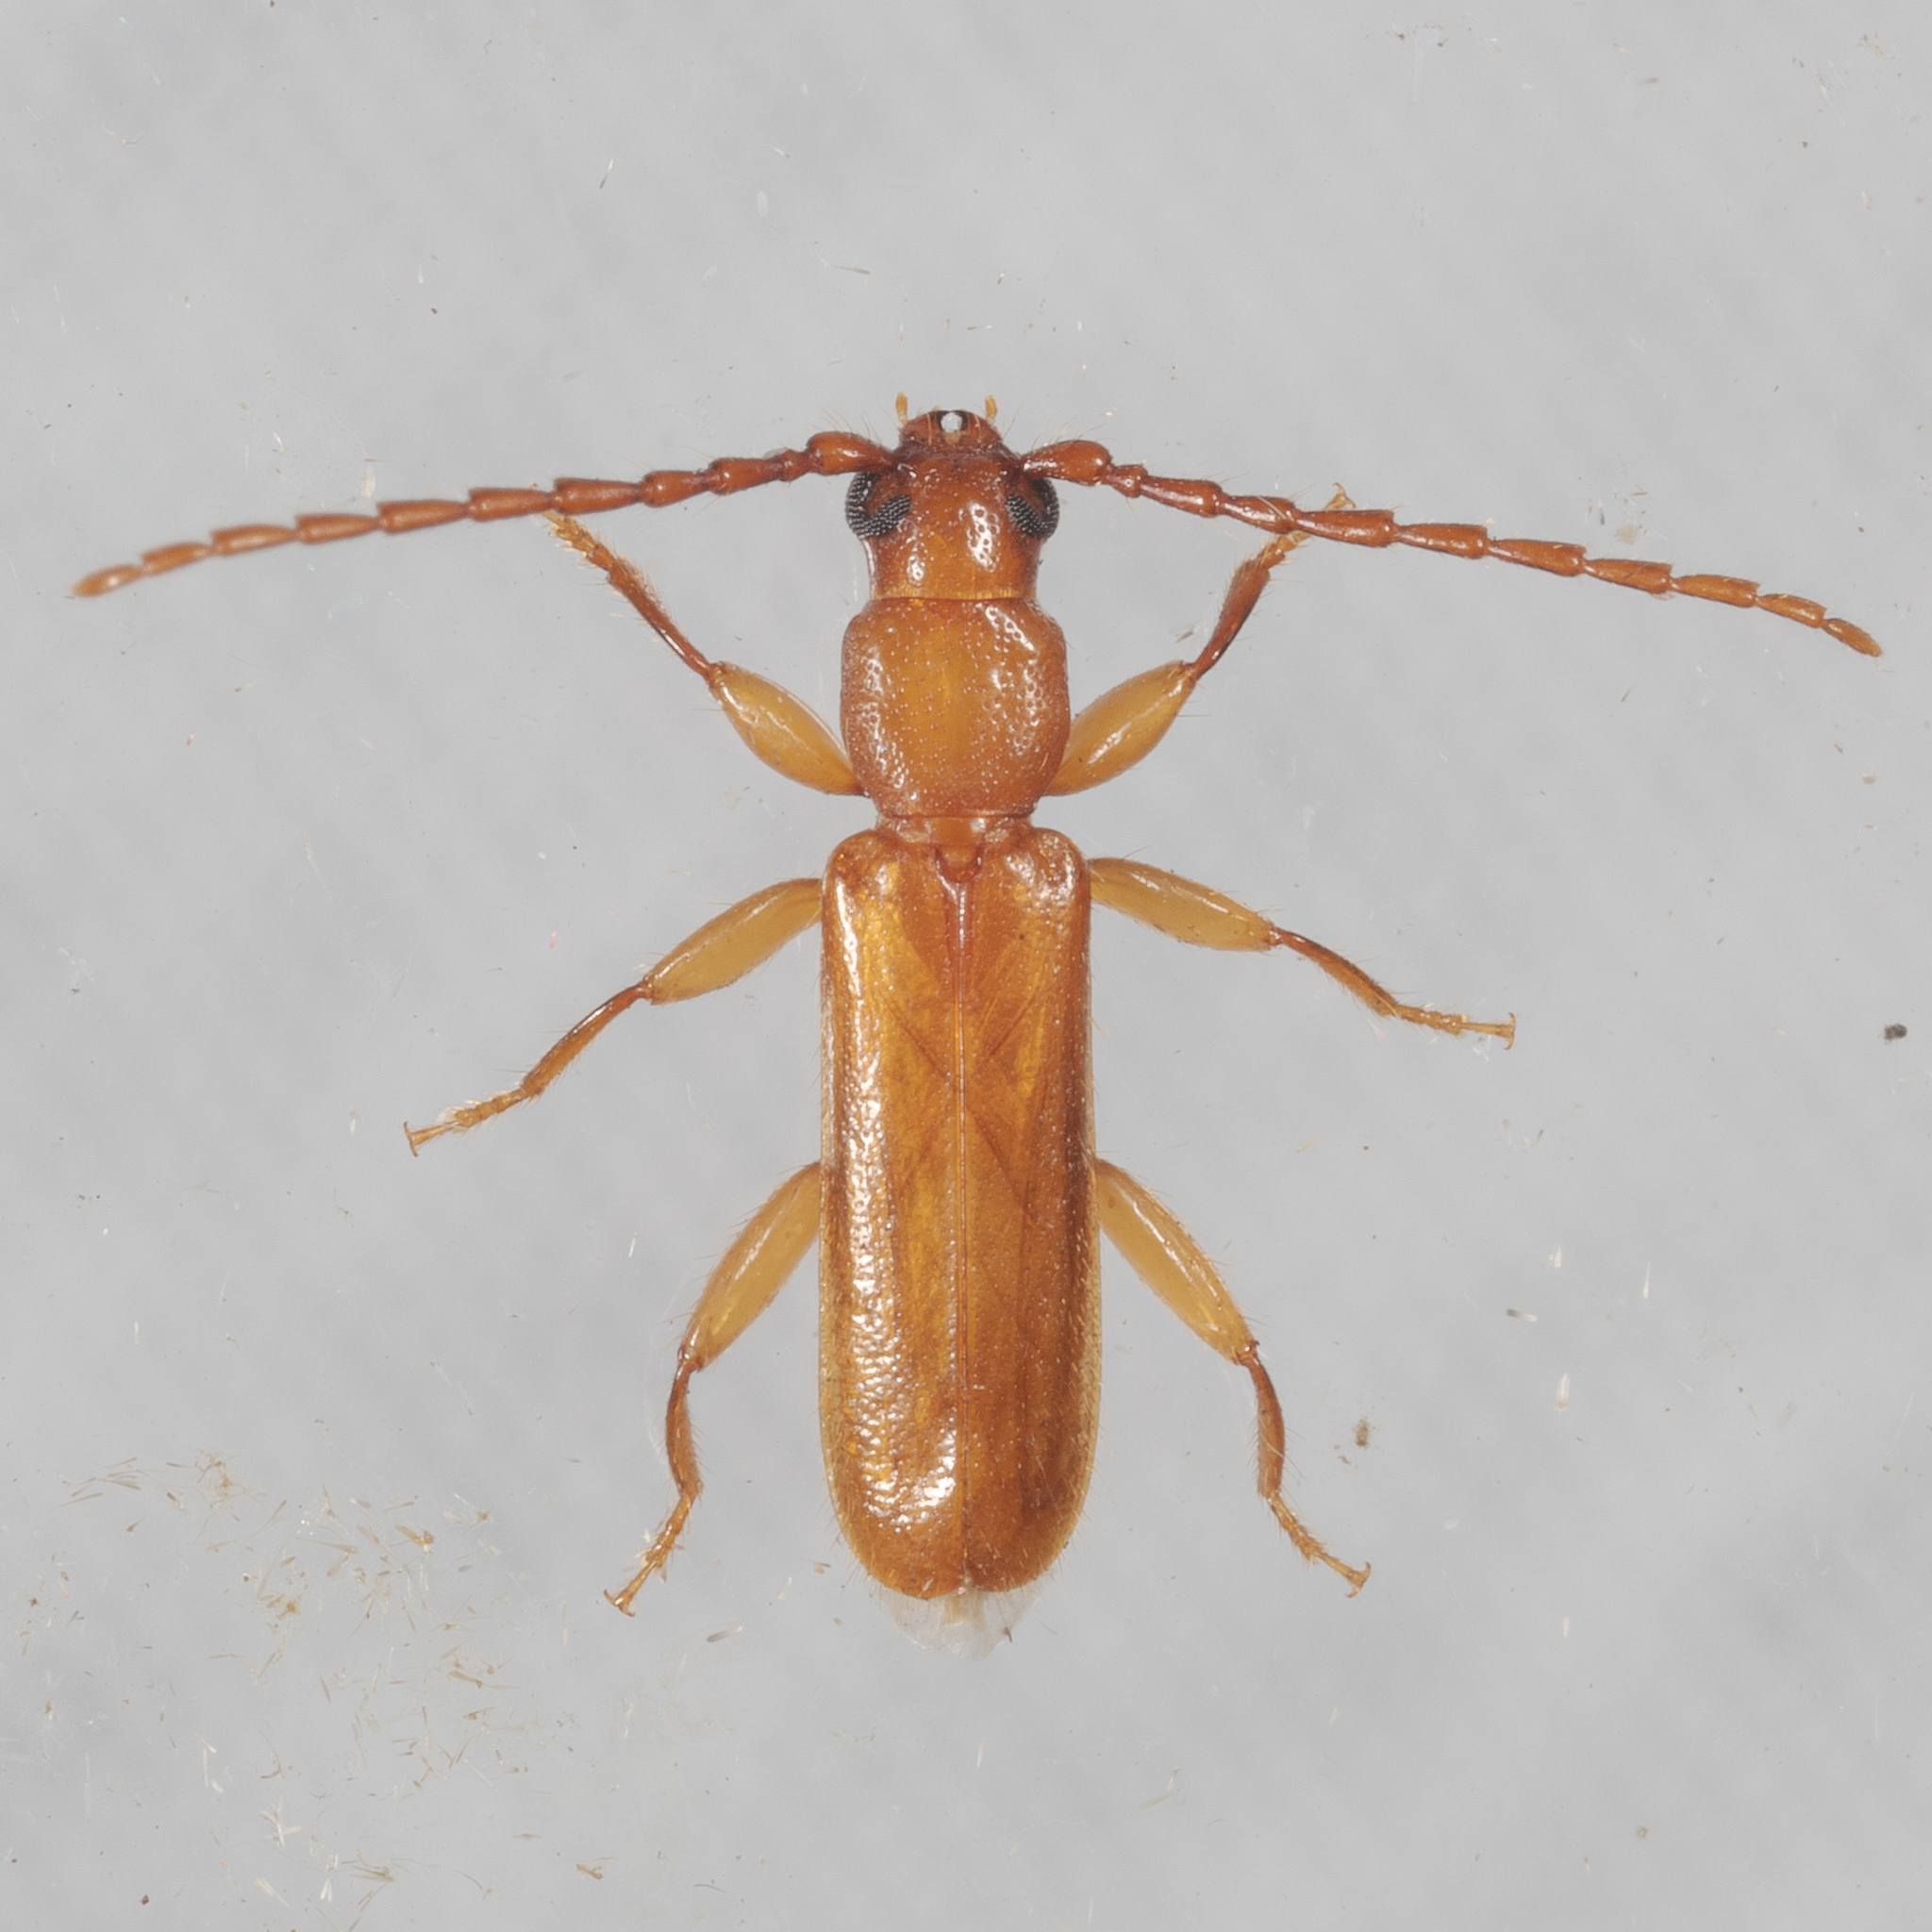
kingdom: Animalia
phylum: Arthropoda
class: Insecta
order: Coleoptera
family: Cerambycidae
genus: Smodicum
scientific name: Smodicum cucujiforme
